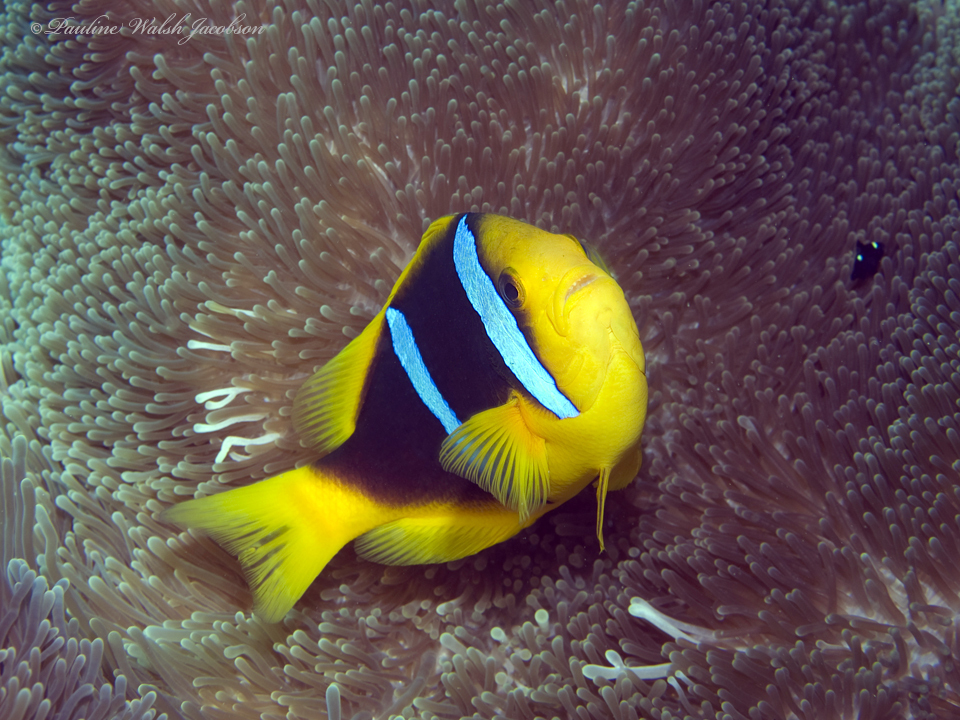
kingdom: Animalia
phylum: Chordata
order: Perciformes
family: Pomacentridae
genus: Amphiprion
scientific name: Amphiprion chrysopterus
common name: Orange-fin anemonefish
